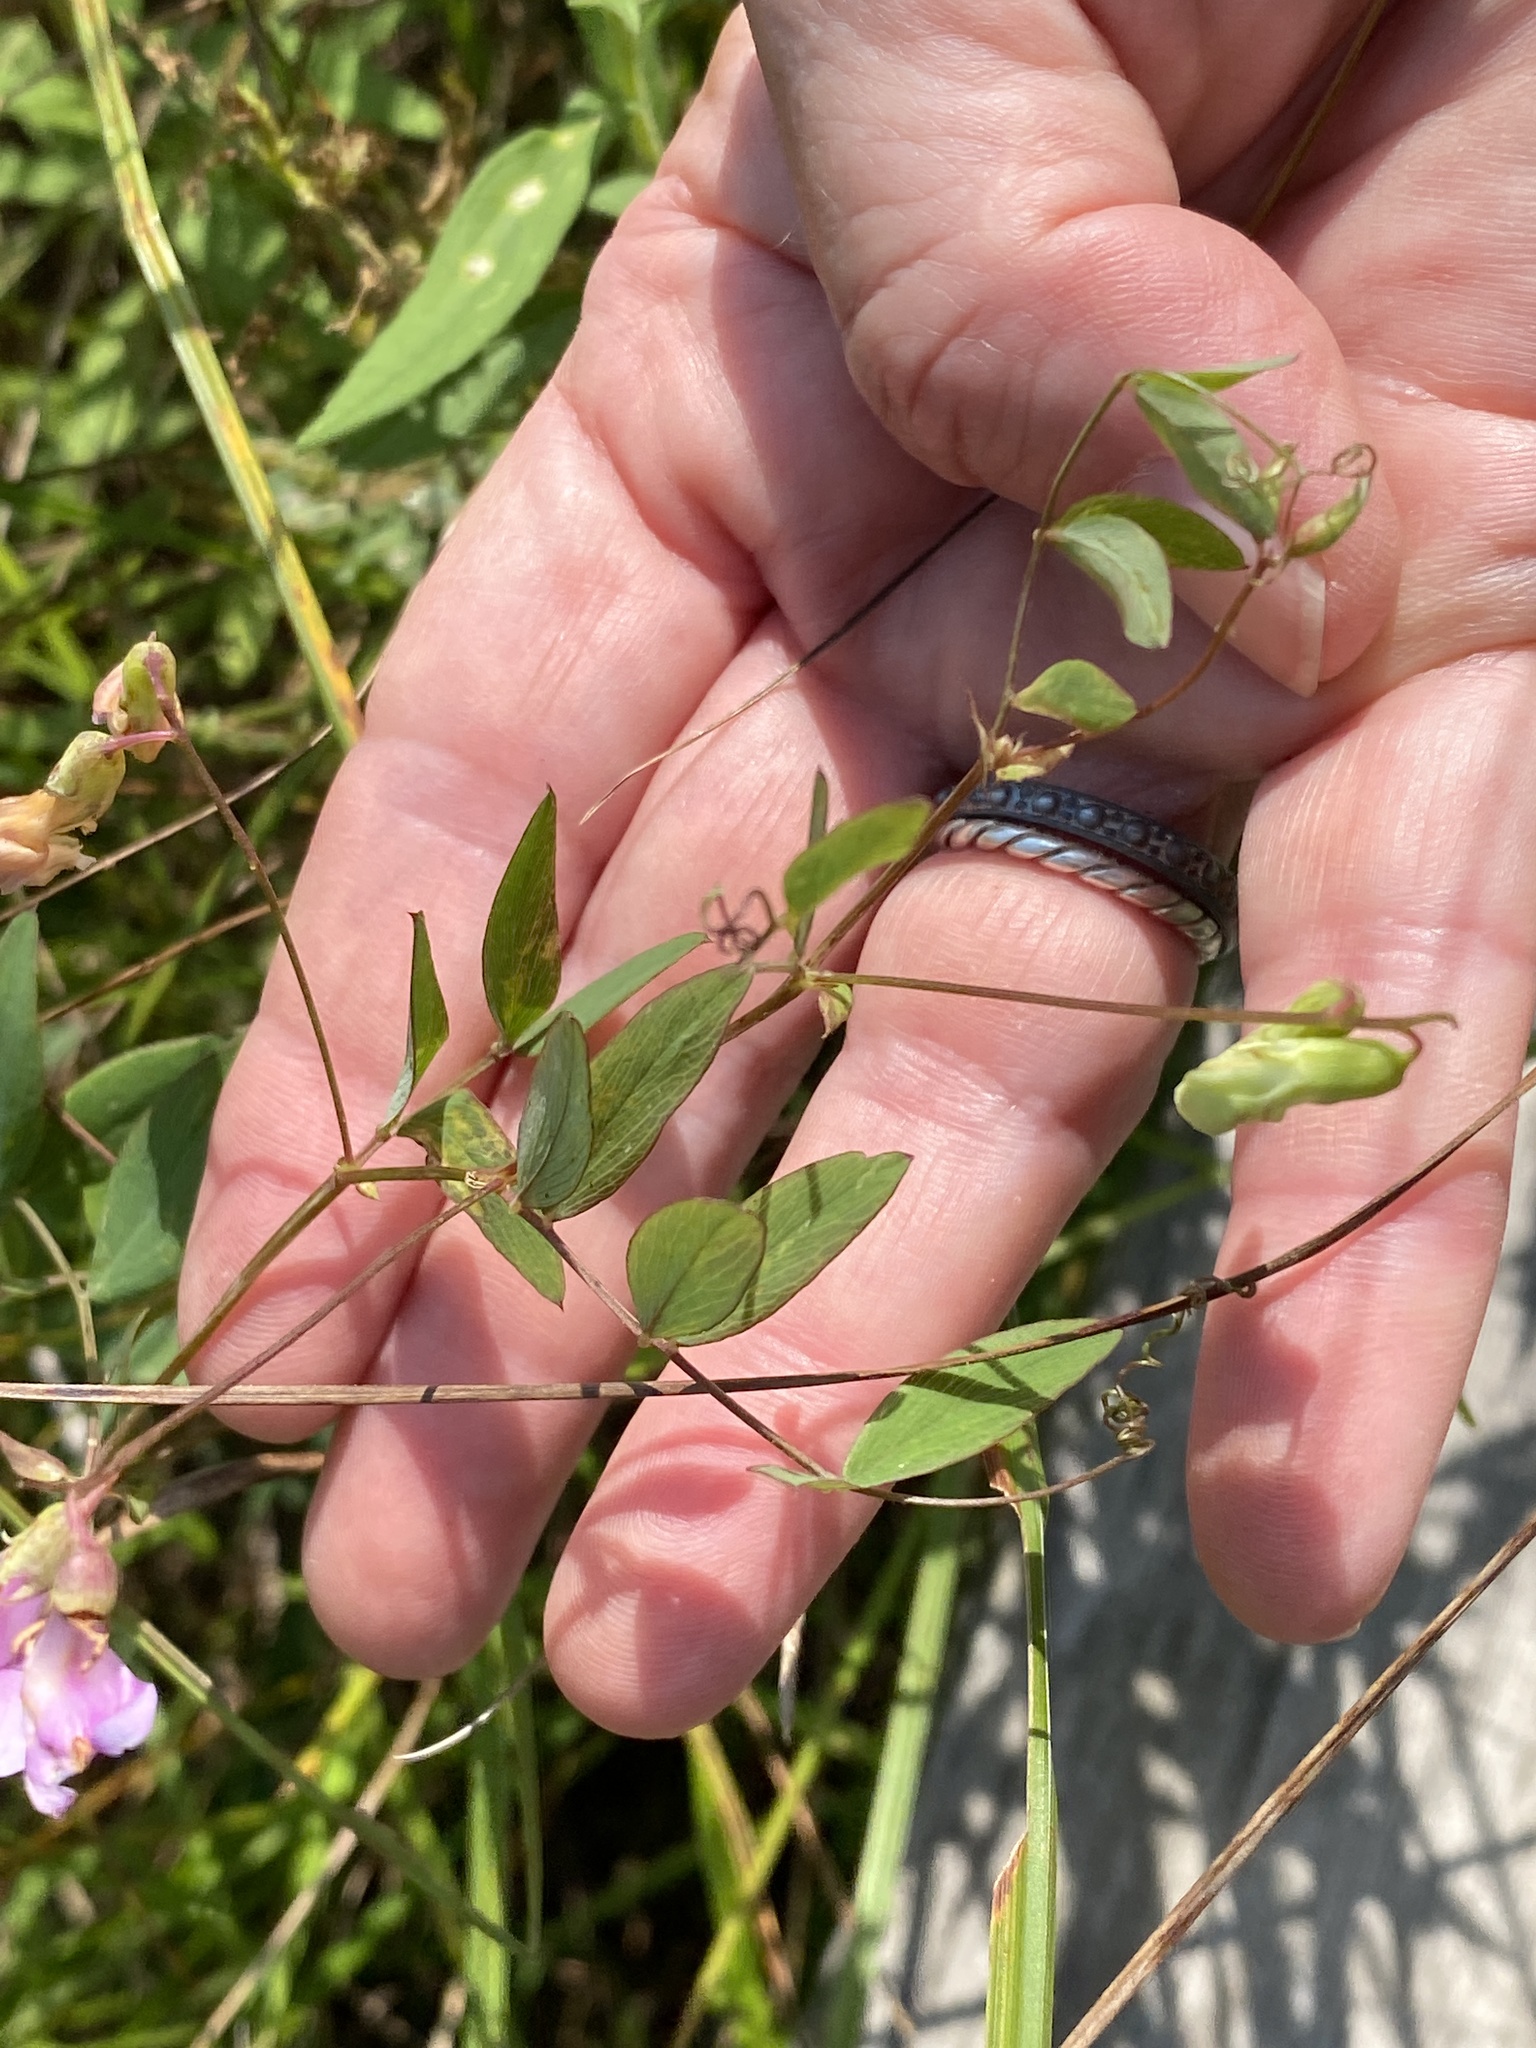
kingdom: Plantae
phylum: Tracheophyta
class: Magnoliopsida
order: Fabales
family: Fabaceae
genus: Lathyrus
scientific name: Lathyrus palustris
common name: Marsh pea
